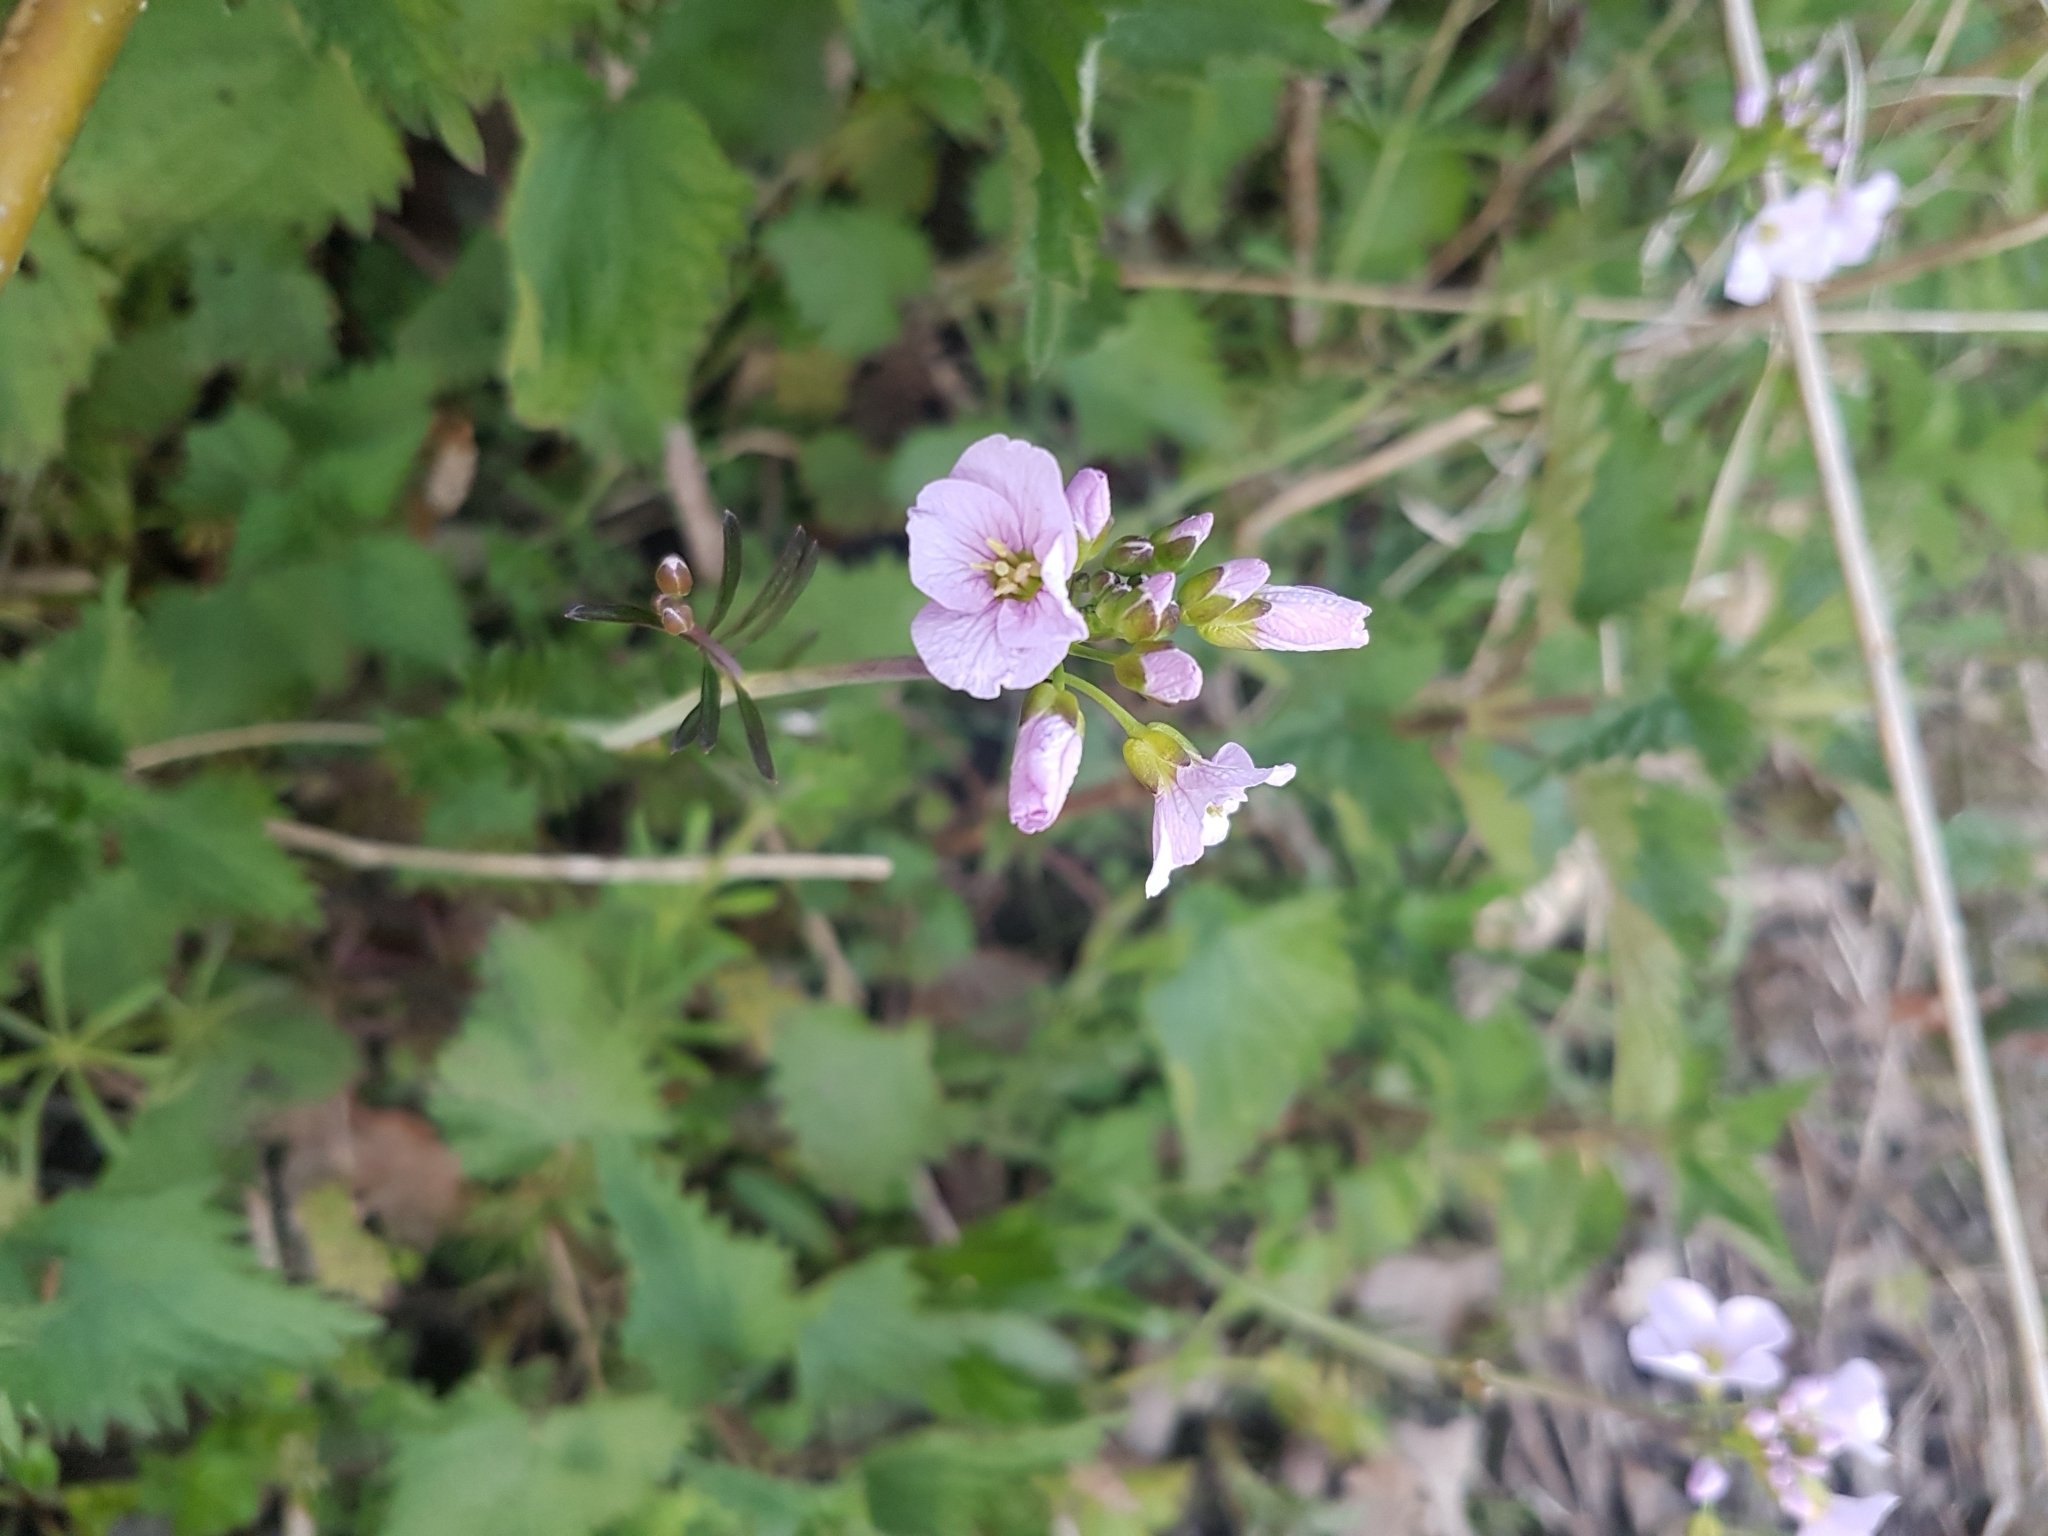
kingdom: Plantae
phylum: Tracheophyta
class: Magnoliopsida
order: Brassicales
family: Brassicaceae
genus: Cardamine
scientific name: Cardamine pratensis
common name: Cuckoo flower
